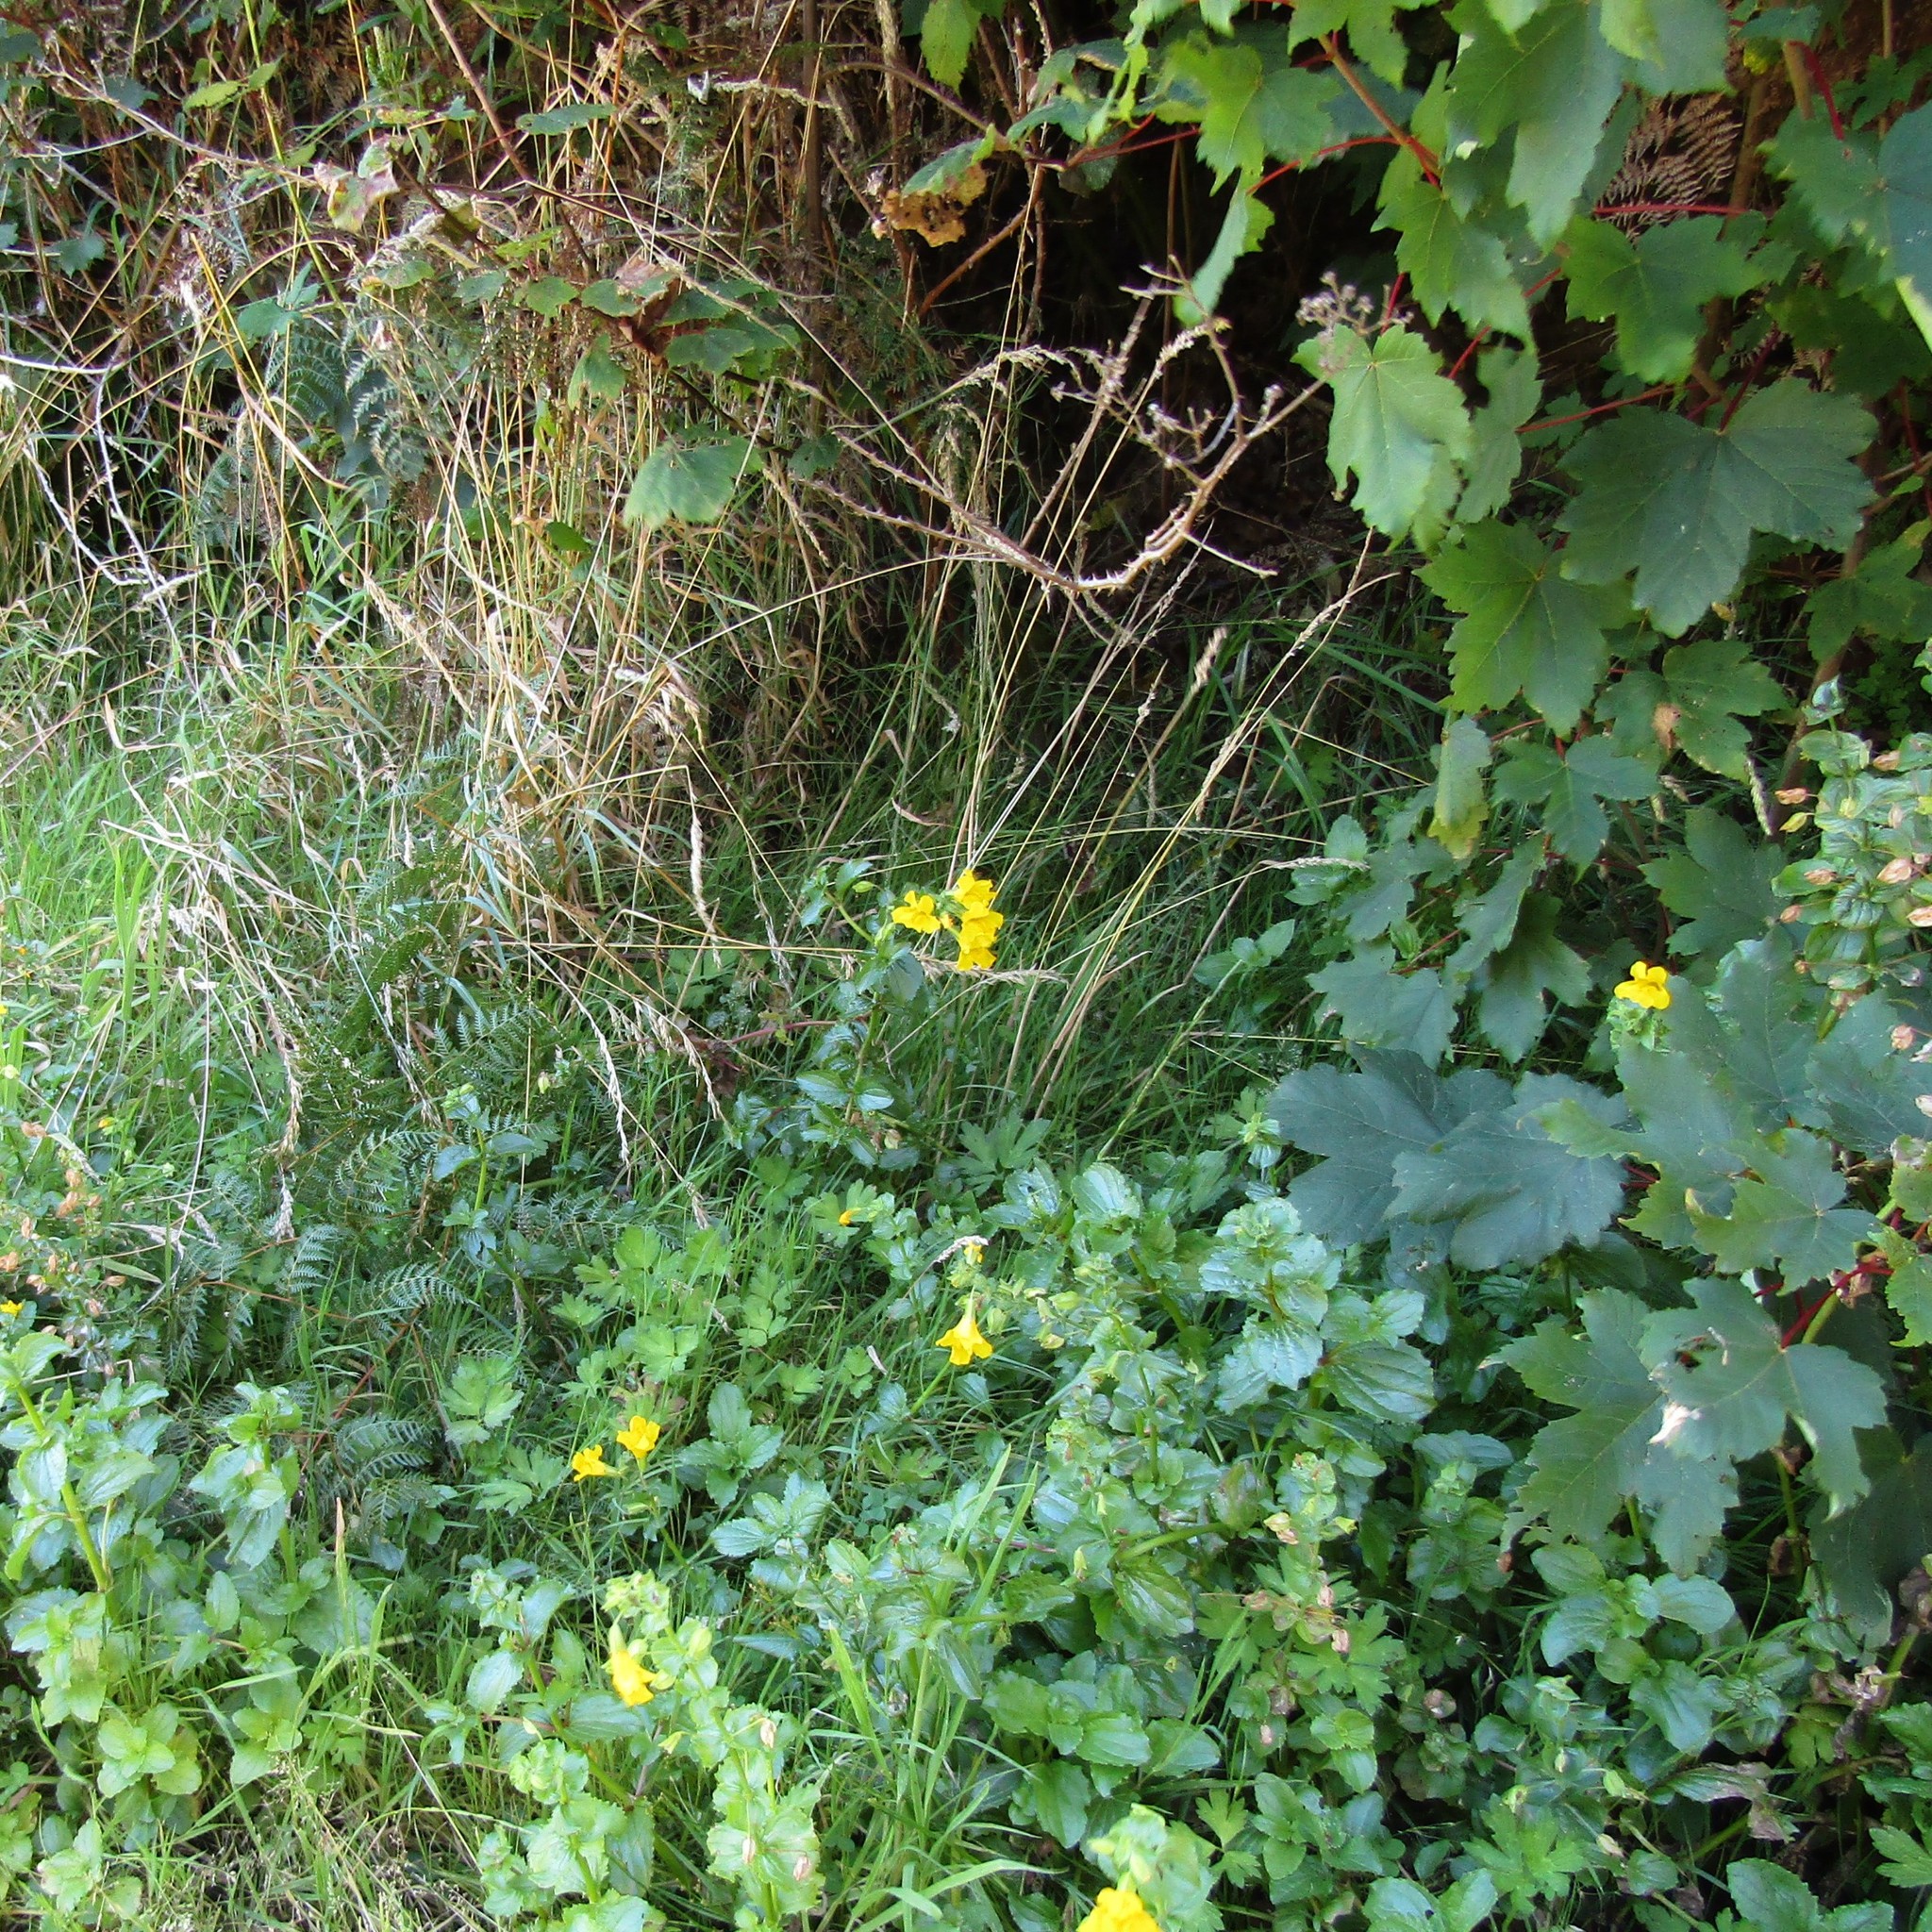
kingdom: Plantae
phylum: Tracheophyta
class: Magnoliopsida
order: Lamiales
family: Phrymaceae
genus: Erythranthe
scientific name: Erythranthe guttata
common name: Monkeyflower
